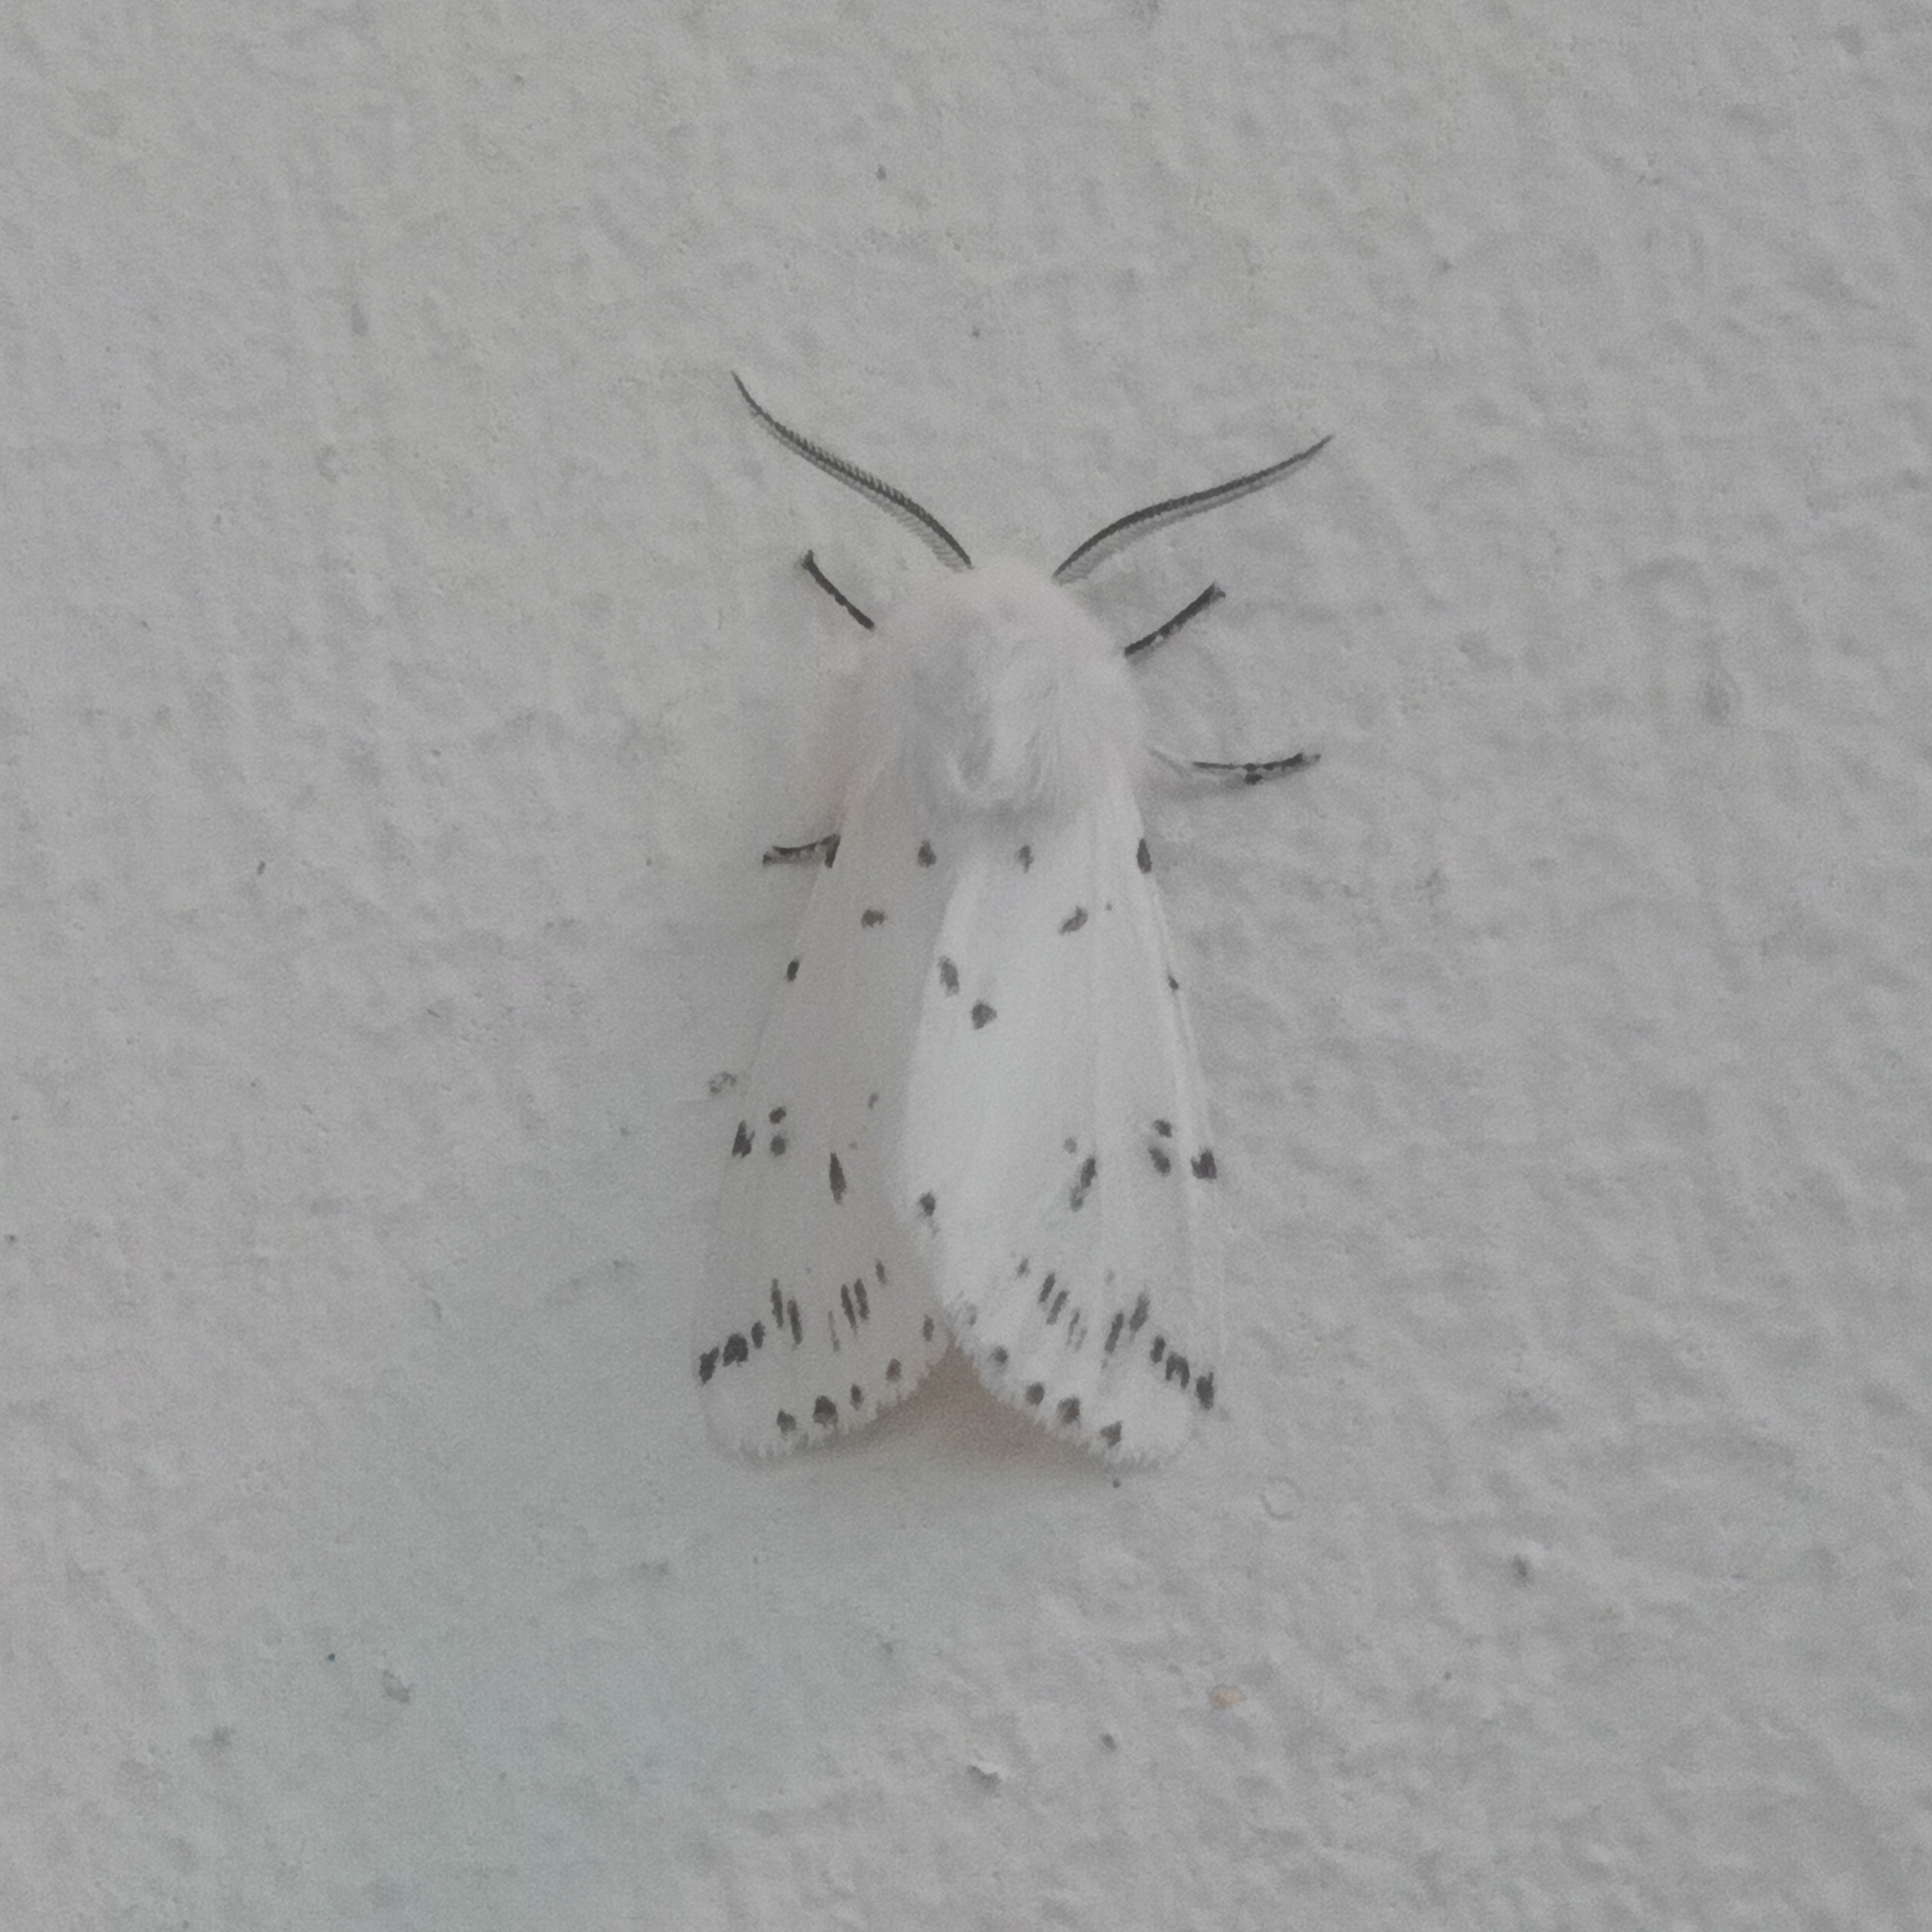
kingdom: Animalia
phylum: Arthropoda
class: Insecta
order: Lepidoptera
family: Erebidae
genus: Spilosoma
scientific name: Spilosoma lubricipeda
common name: White ermine
